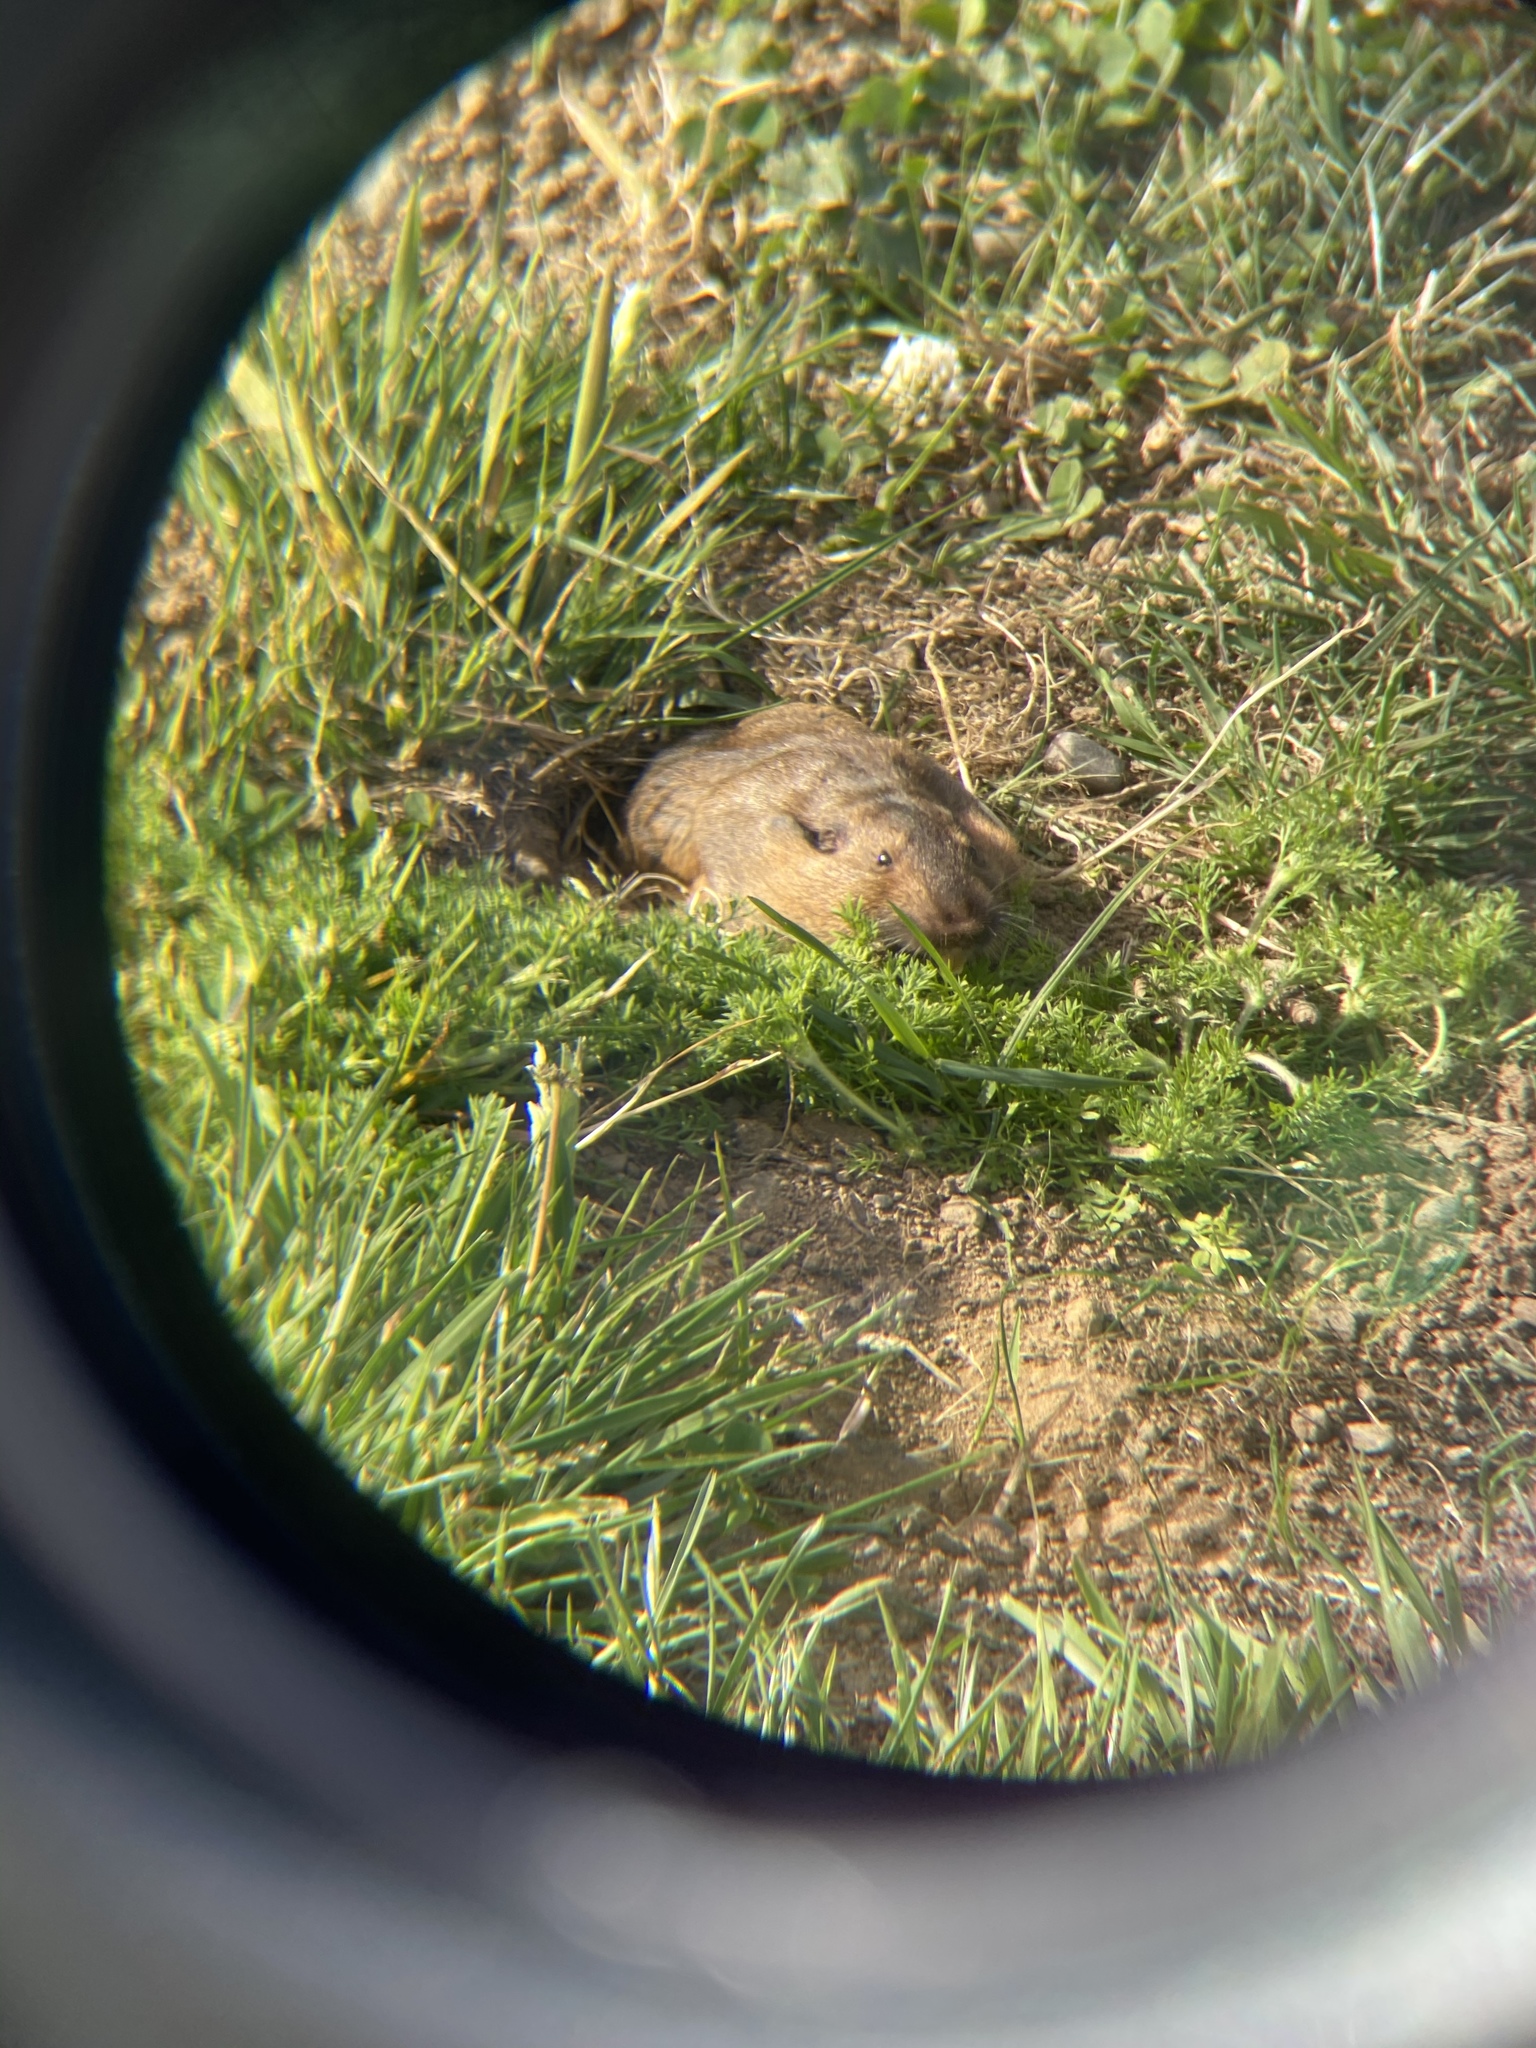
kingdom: Animalia
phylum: Chordata
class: Mammalia
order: Rodentia
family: Geomyidae
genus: Thomomys
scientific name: Thomomys bottae
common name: Botta's pocket gopher
